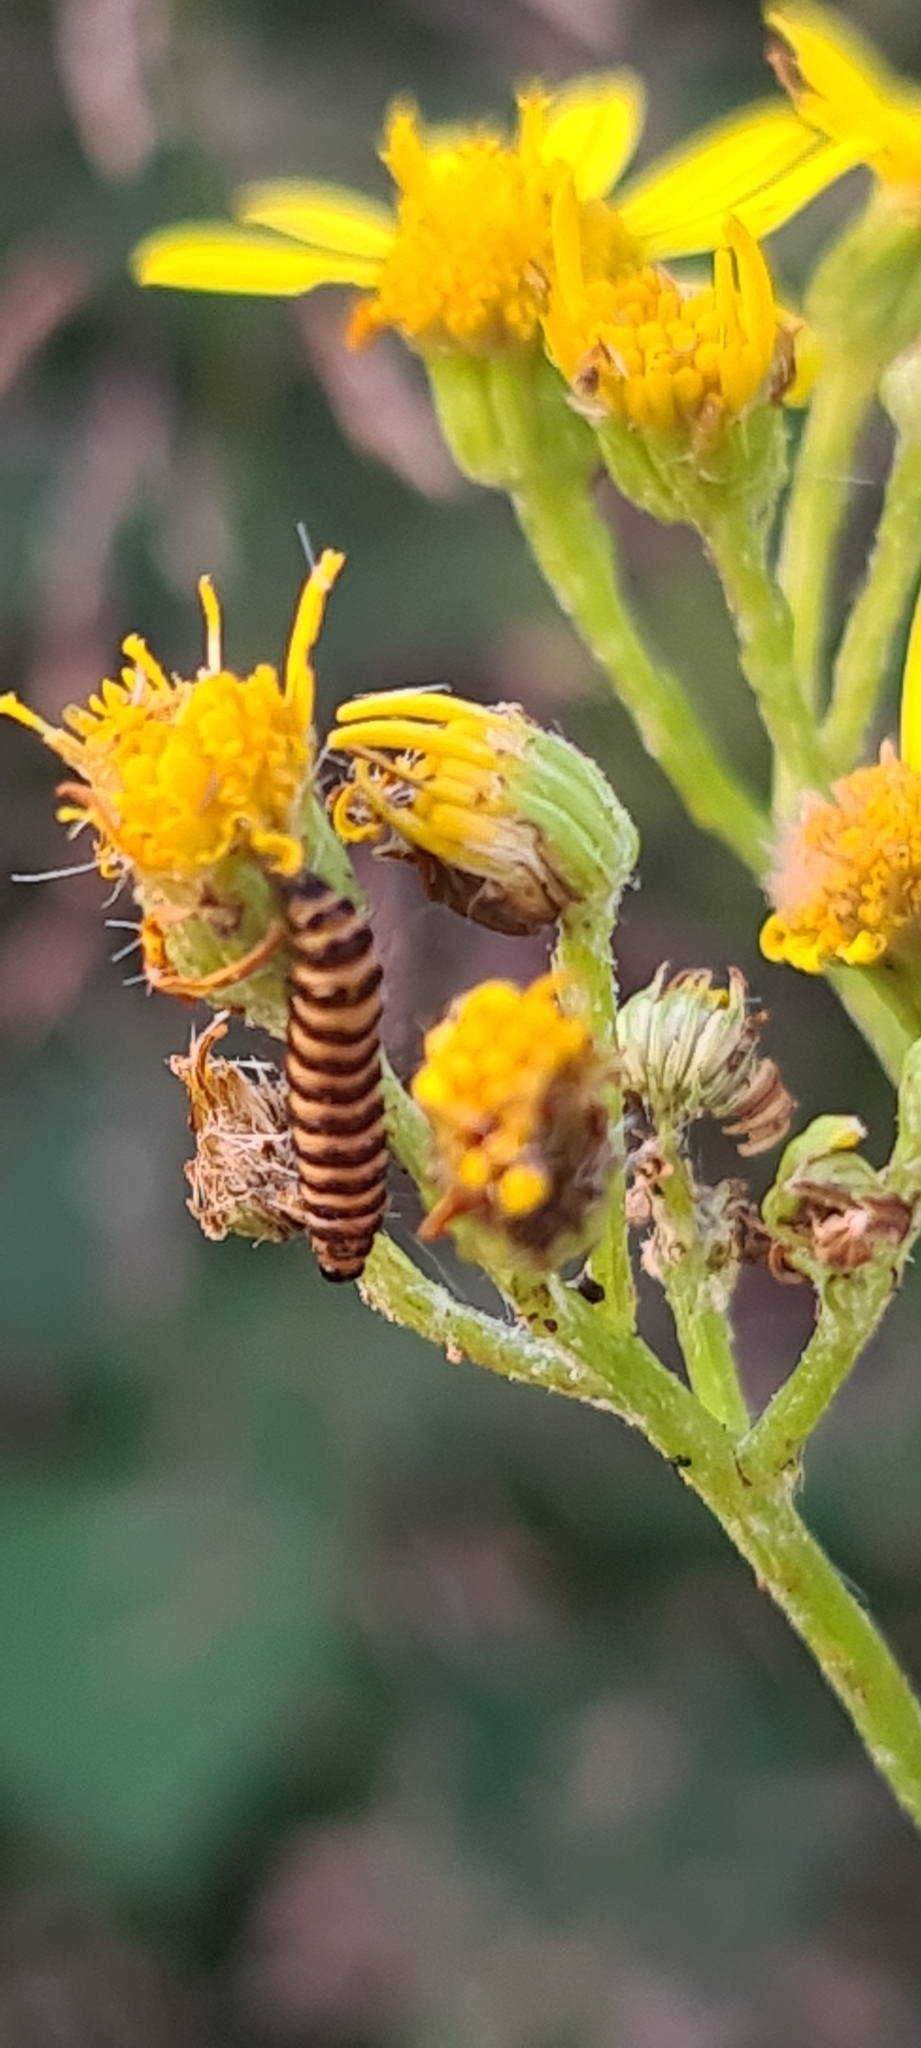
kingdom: Animalia
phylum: Arthropoda
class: Insecta
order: Lepidoptera
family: Erebidae
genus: Tyria
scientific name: Tyria jacobaeae
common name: Cinnabar
